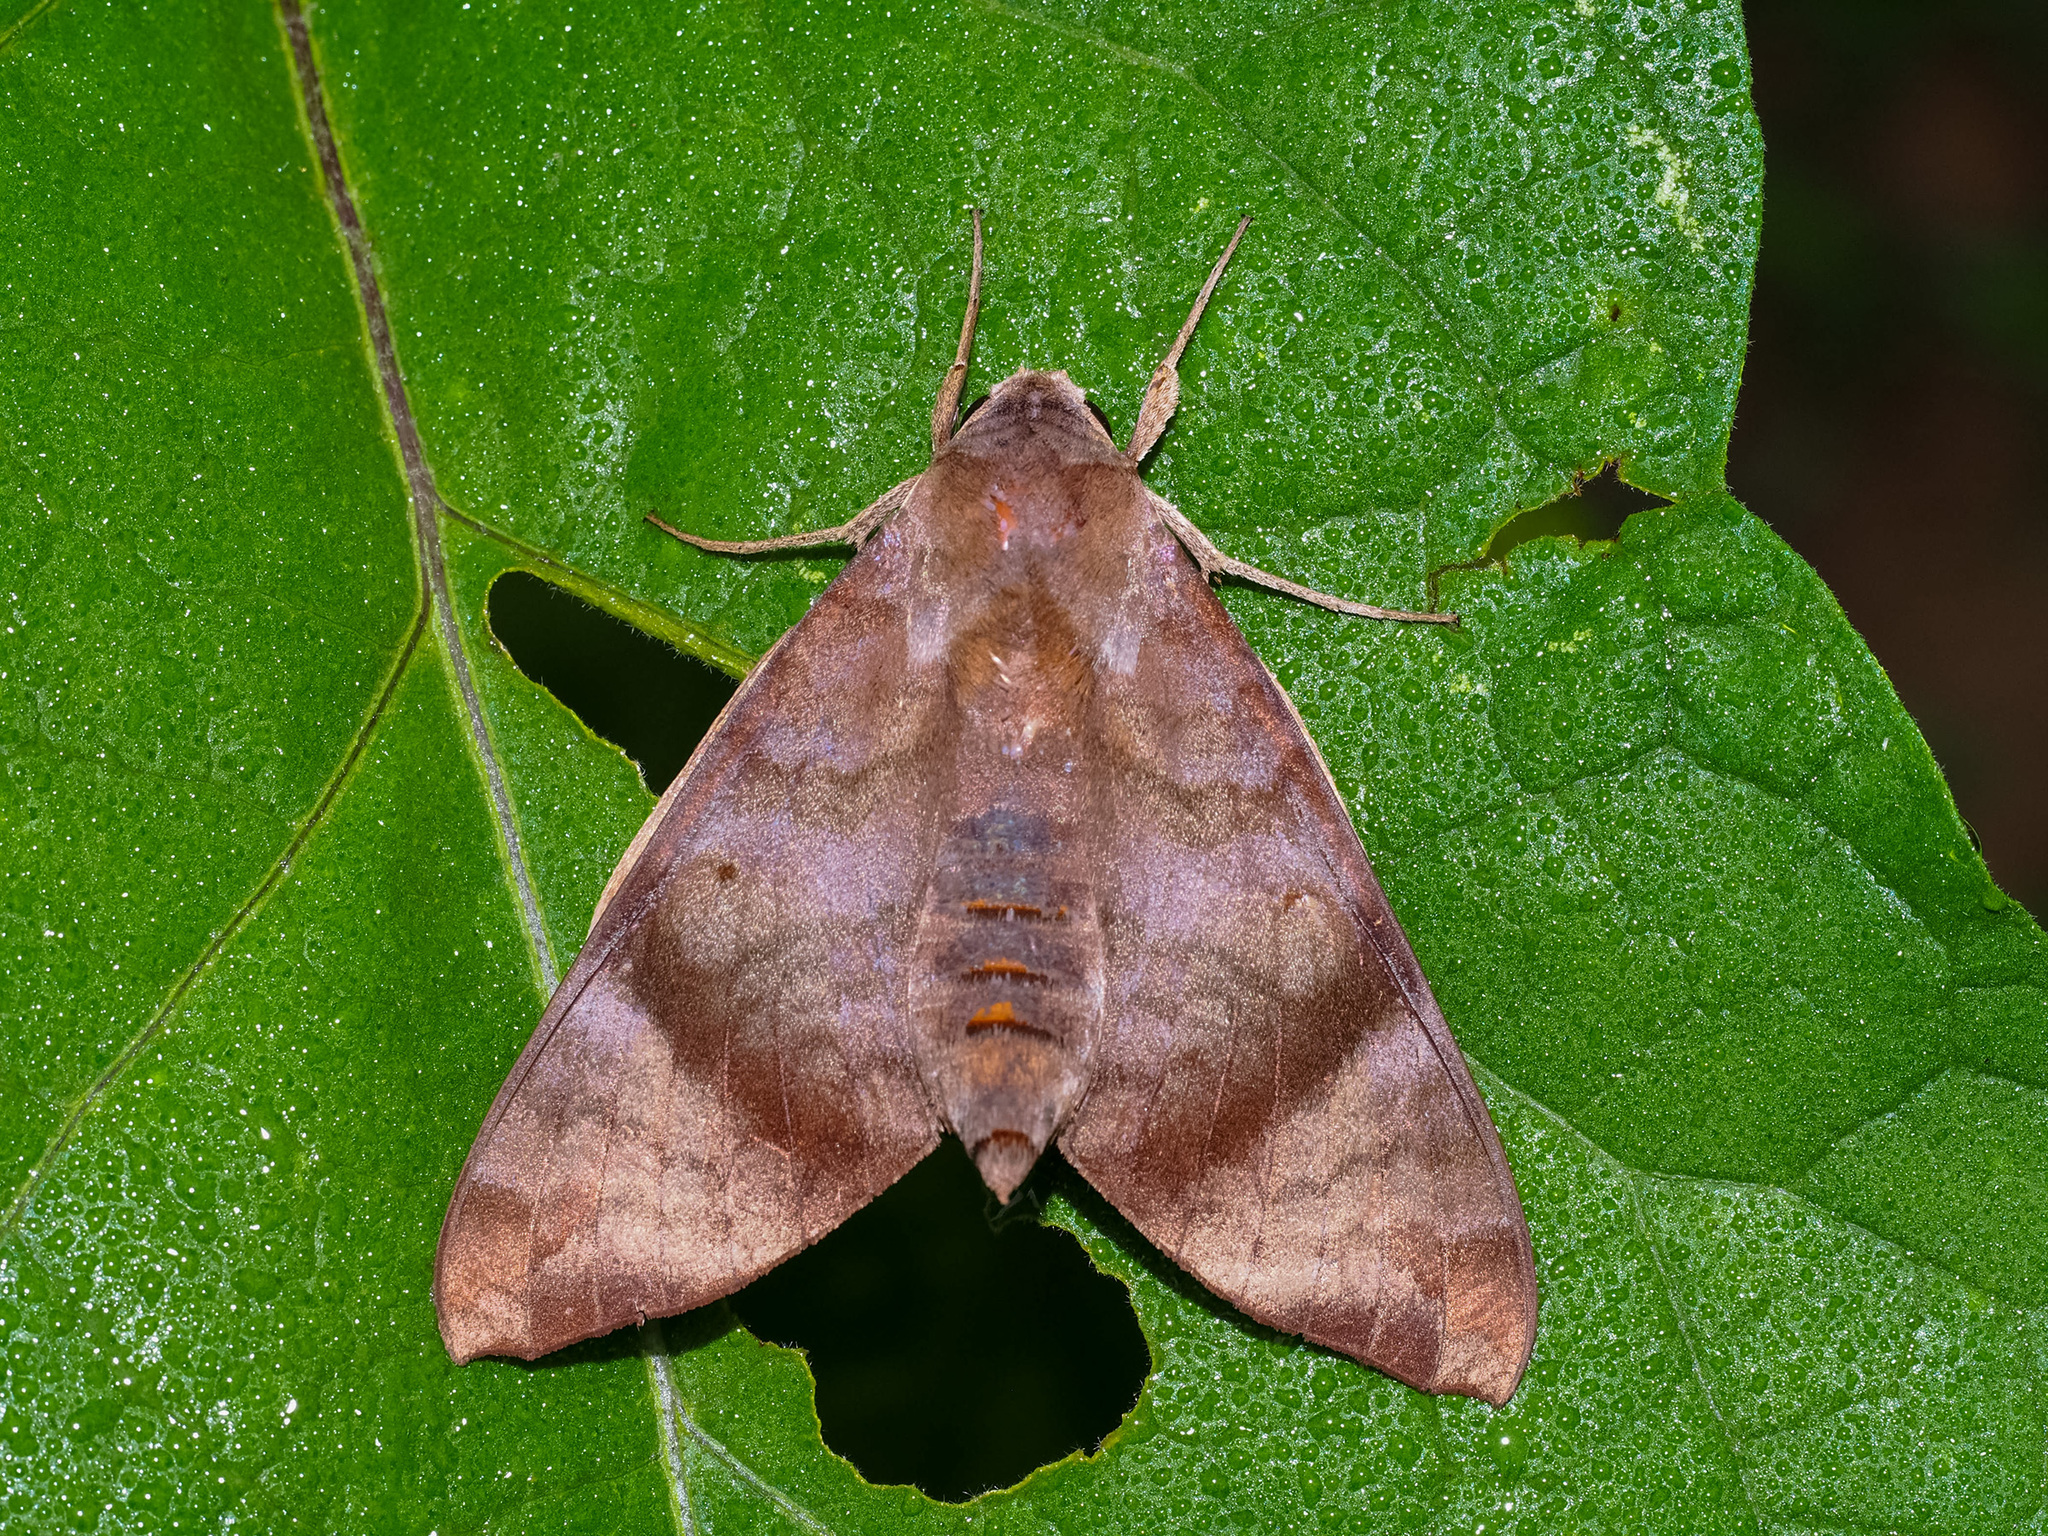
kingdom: Animalia
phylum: Arthropoda
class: Insecta
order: Lepidoptera
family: Sphingidae
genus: Acosmeryx
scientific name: Acosmeryx shervillii
